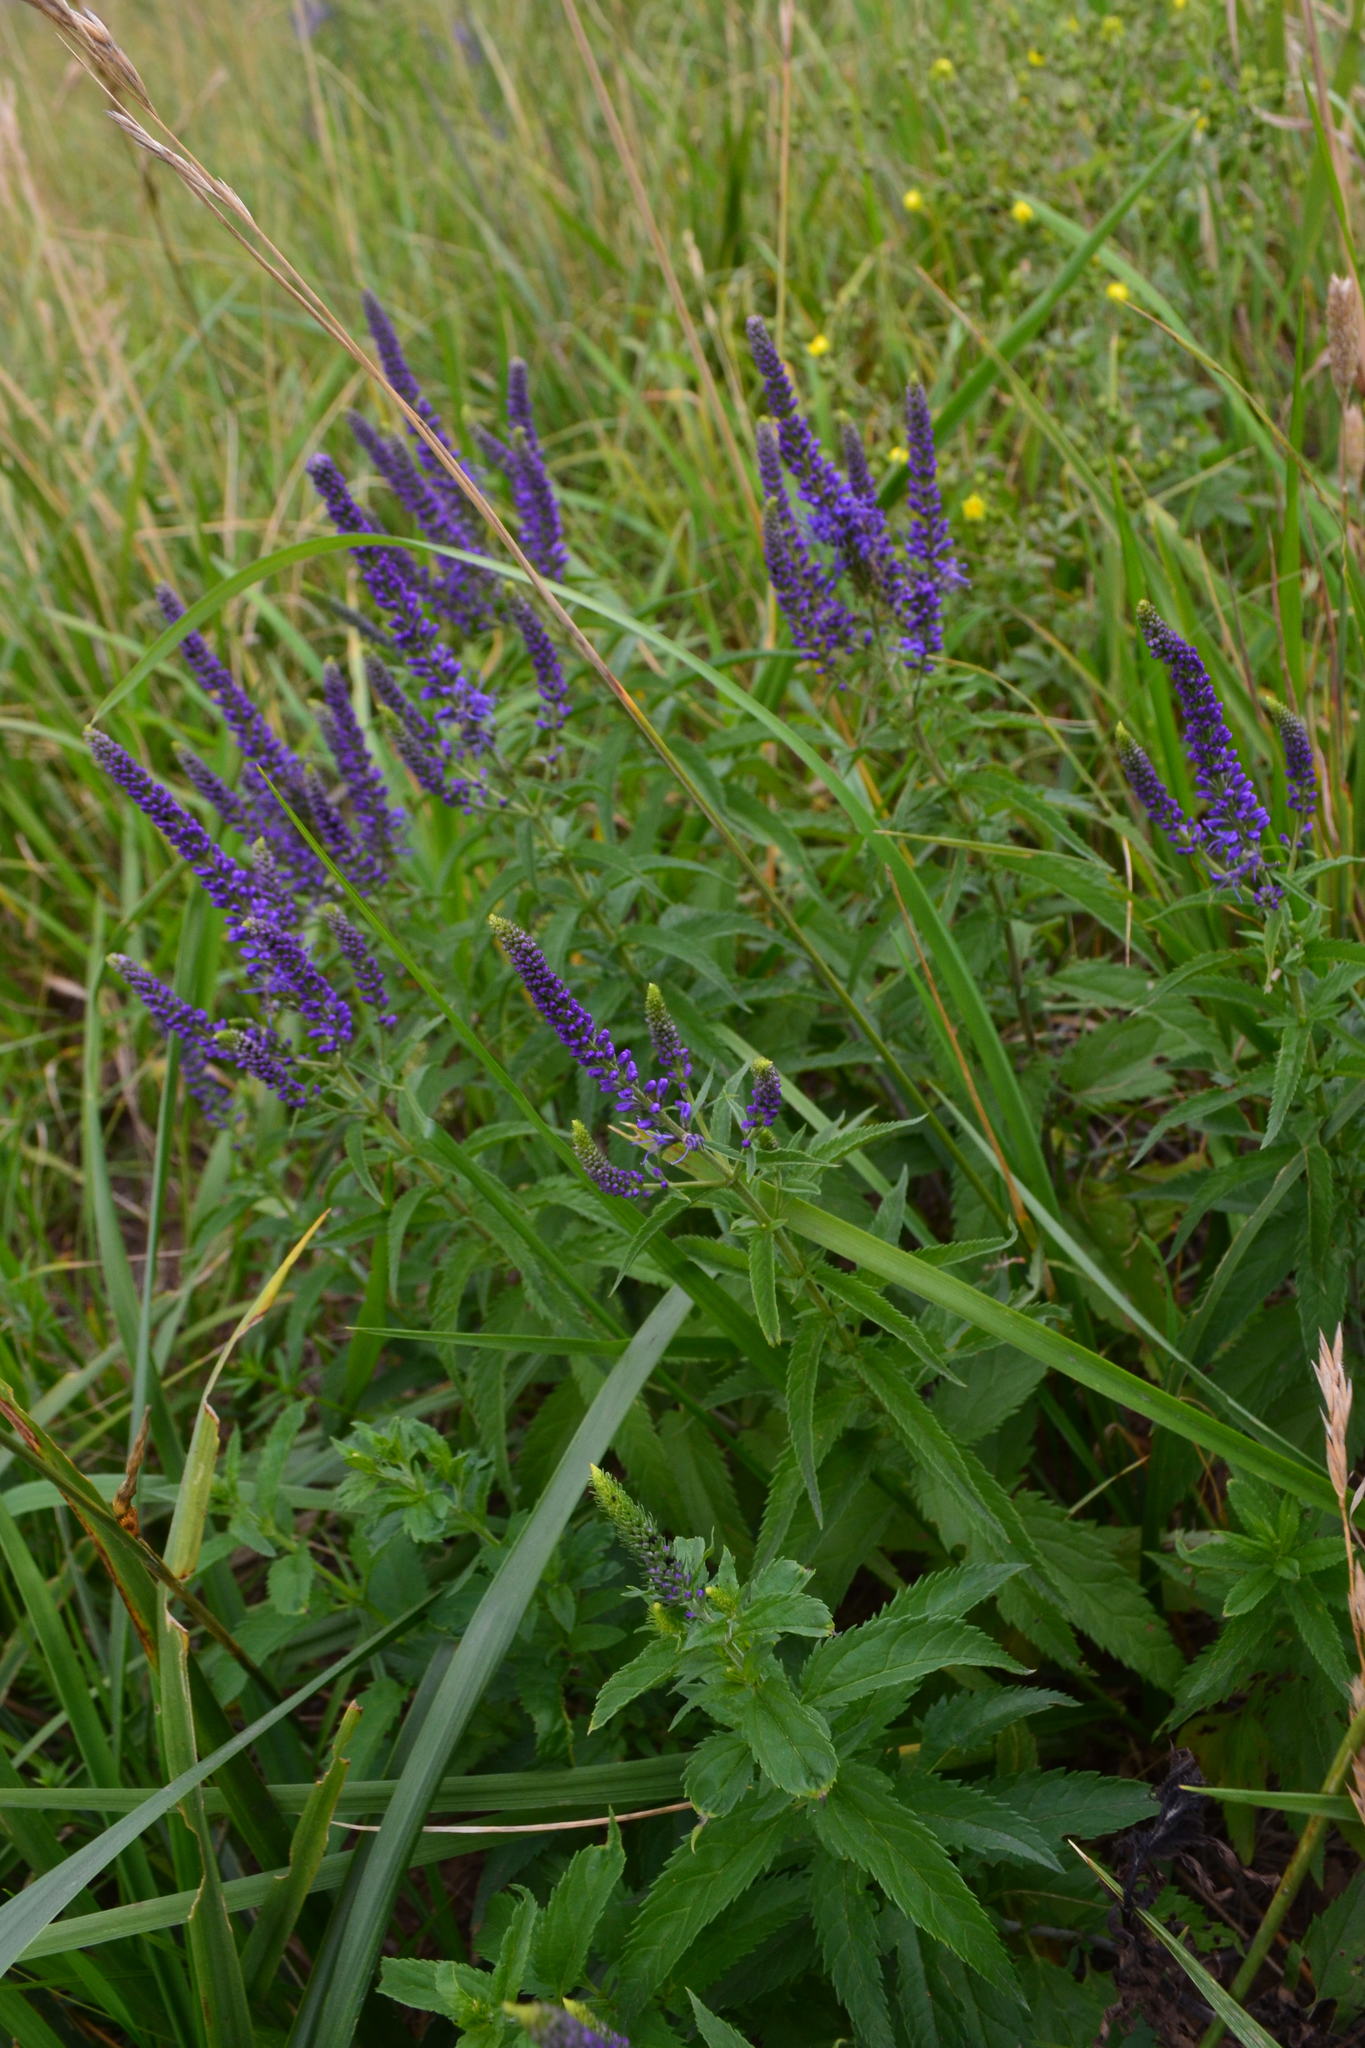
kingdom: Plantae
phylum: Tracheophyta
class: Magnoliopsida
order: Lamiales
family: Plantaginaceae
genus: Veronica
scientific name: Veronica longifolia
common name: Garden speedwell
